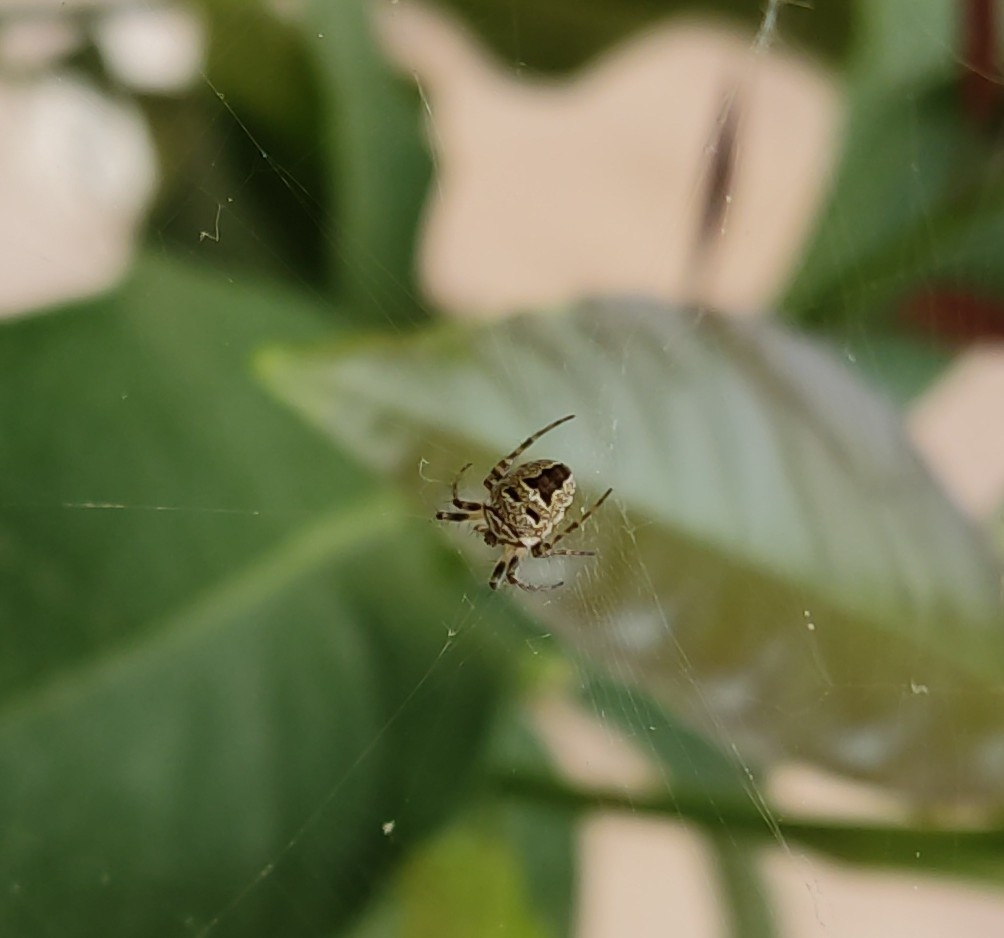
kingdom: Animalia
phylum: Arthropoda
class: Arachnida
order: Araneae
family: Araneidae
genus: Zilla
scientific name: Zilla diodia
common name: Zilla diodia
